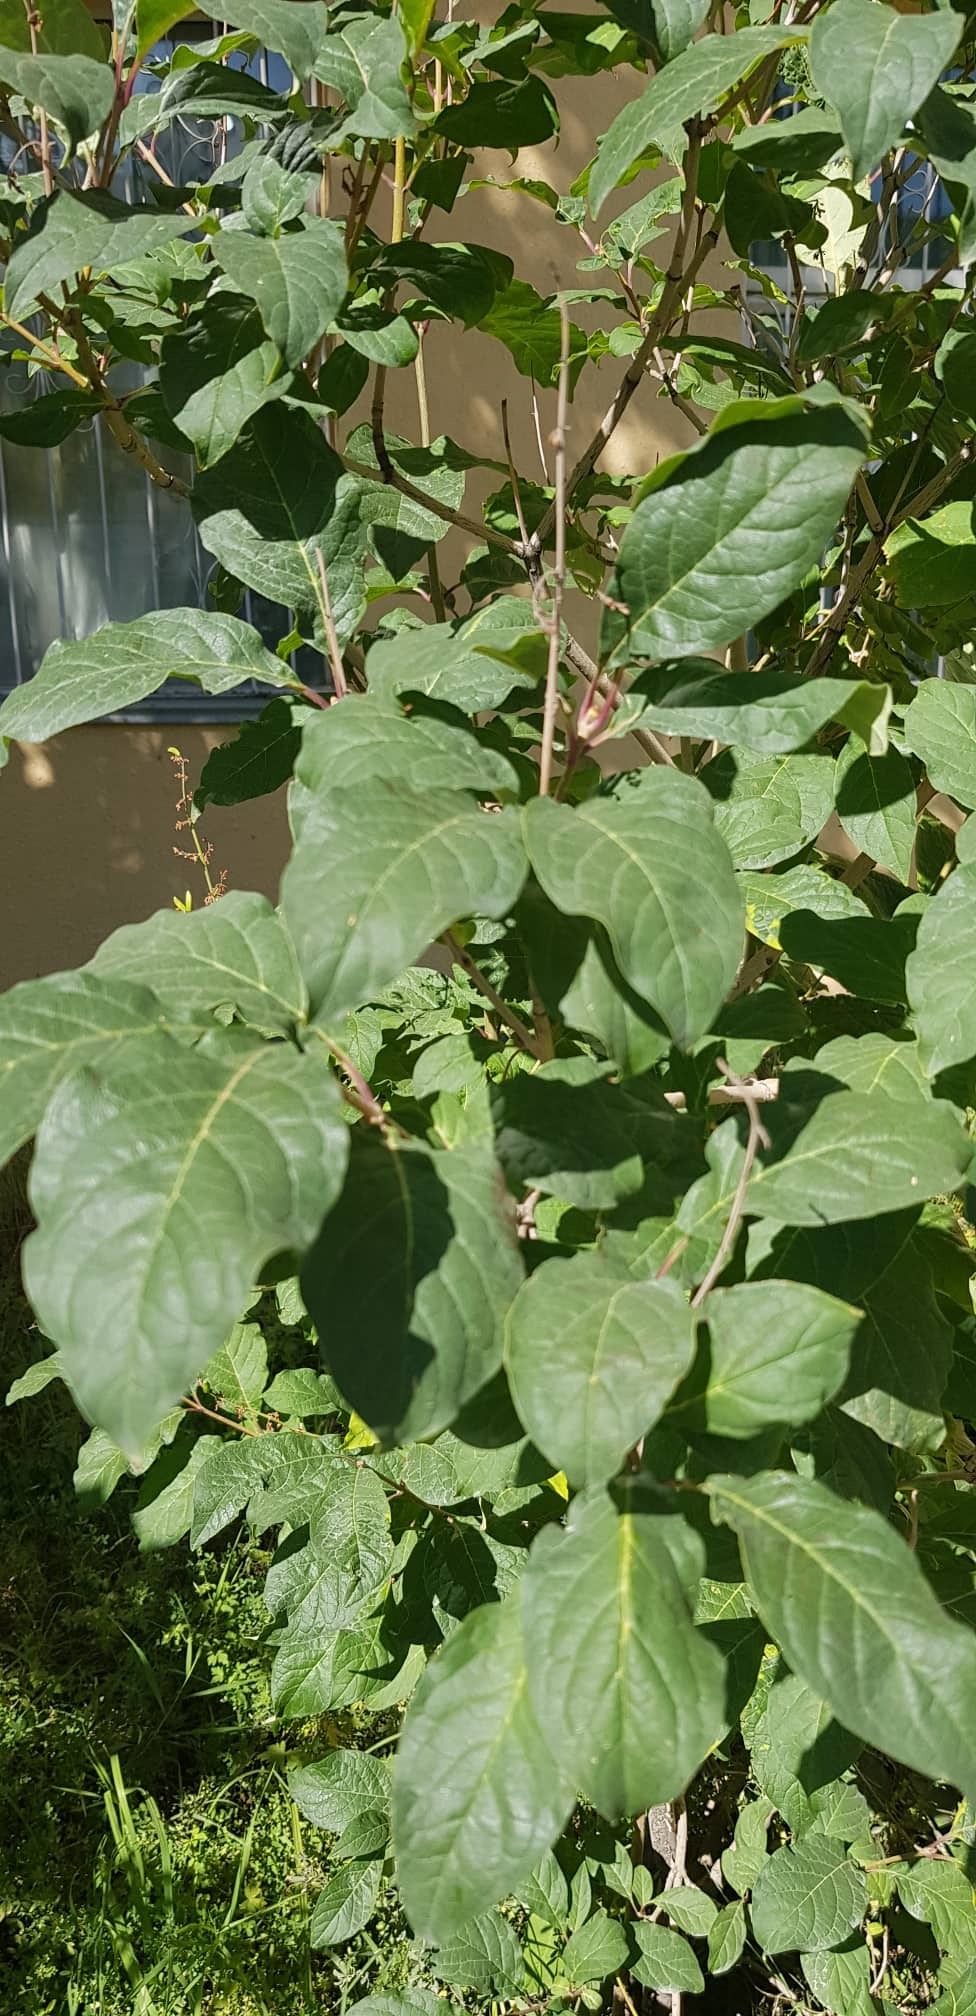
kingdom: Plantae
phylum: Tracheophyta
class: Magnoliopsida
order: Lamiales
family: Oleaceae
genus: Syringa
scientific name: Syringa josikaea
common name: Hungarian lilac
